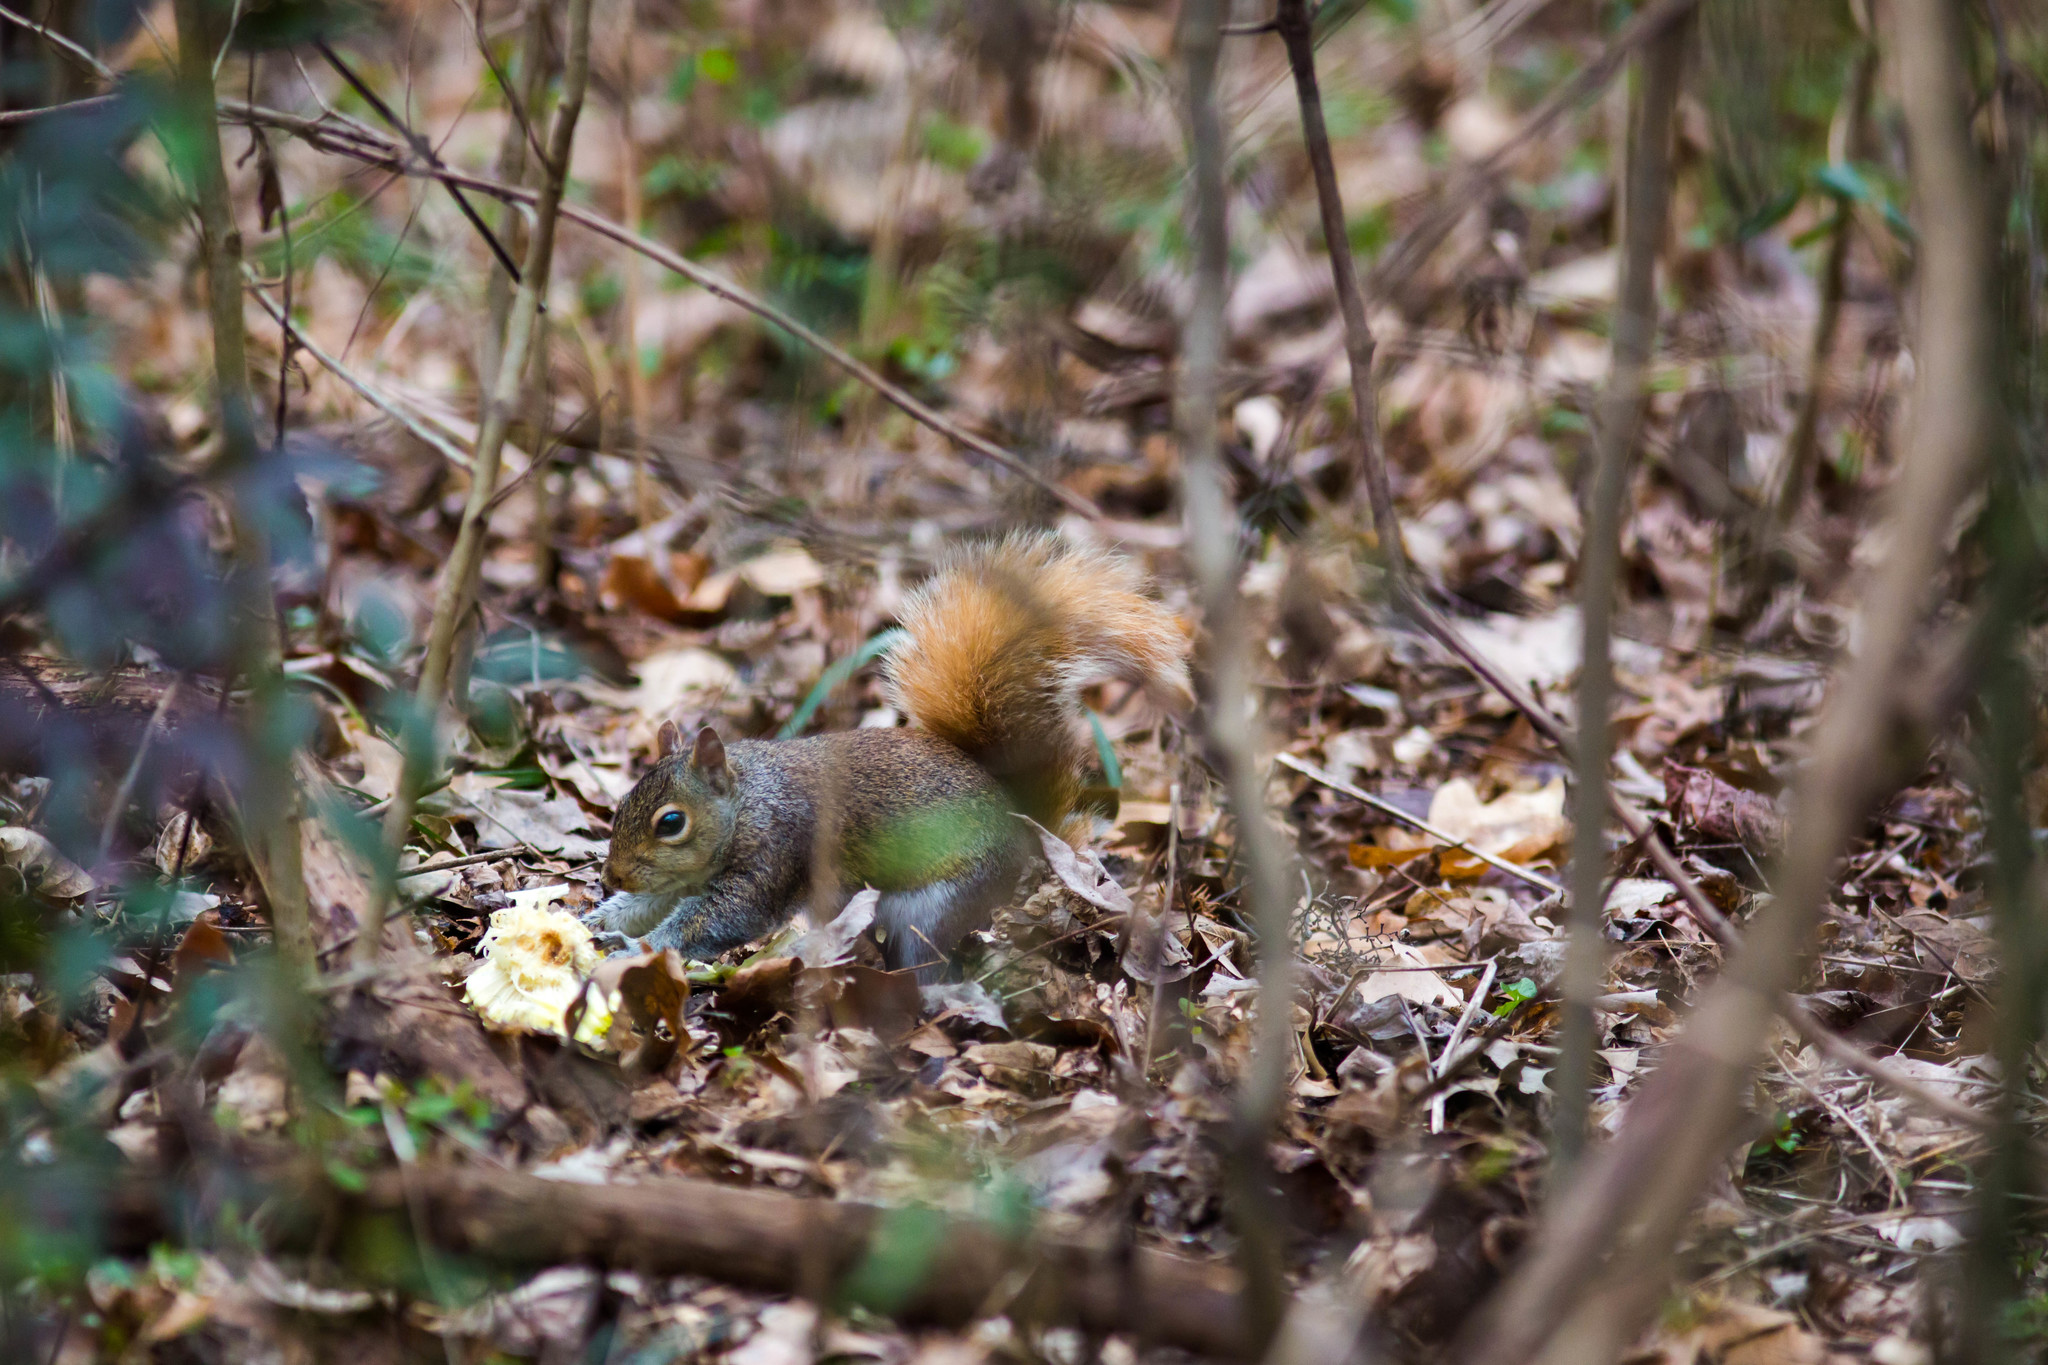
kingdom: Animalia
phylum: Chordata
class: Mammalia
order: Rodentia
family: Sciuridae
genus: Sciurus
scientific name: Sciurus carolinensis
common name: Eastern gray squirrel
